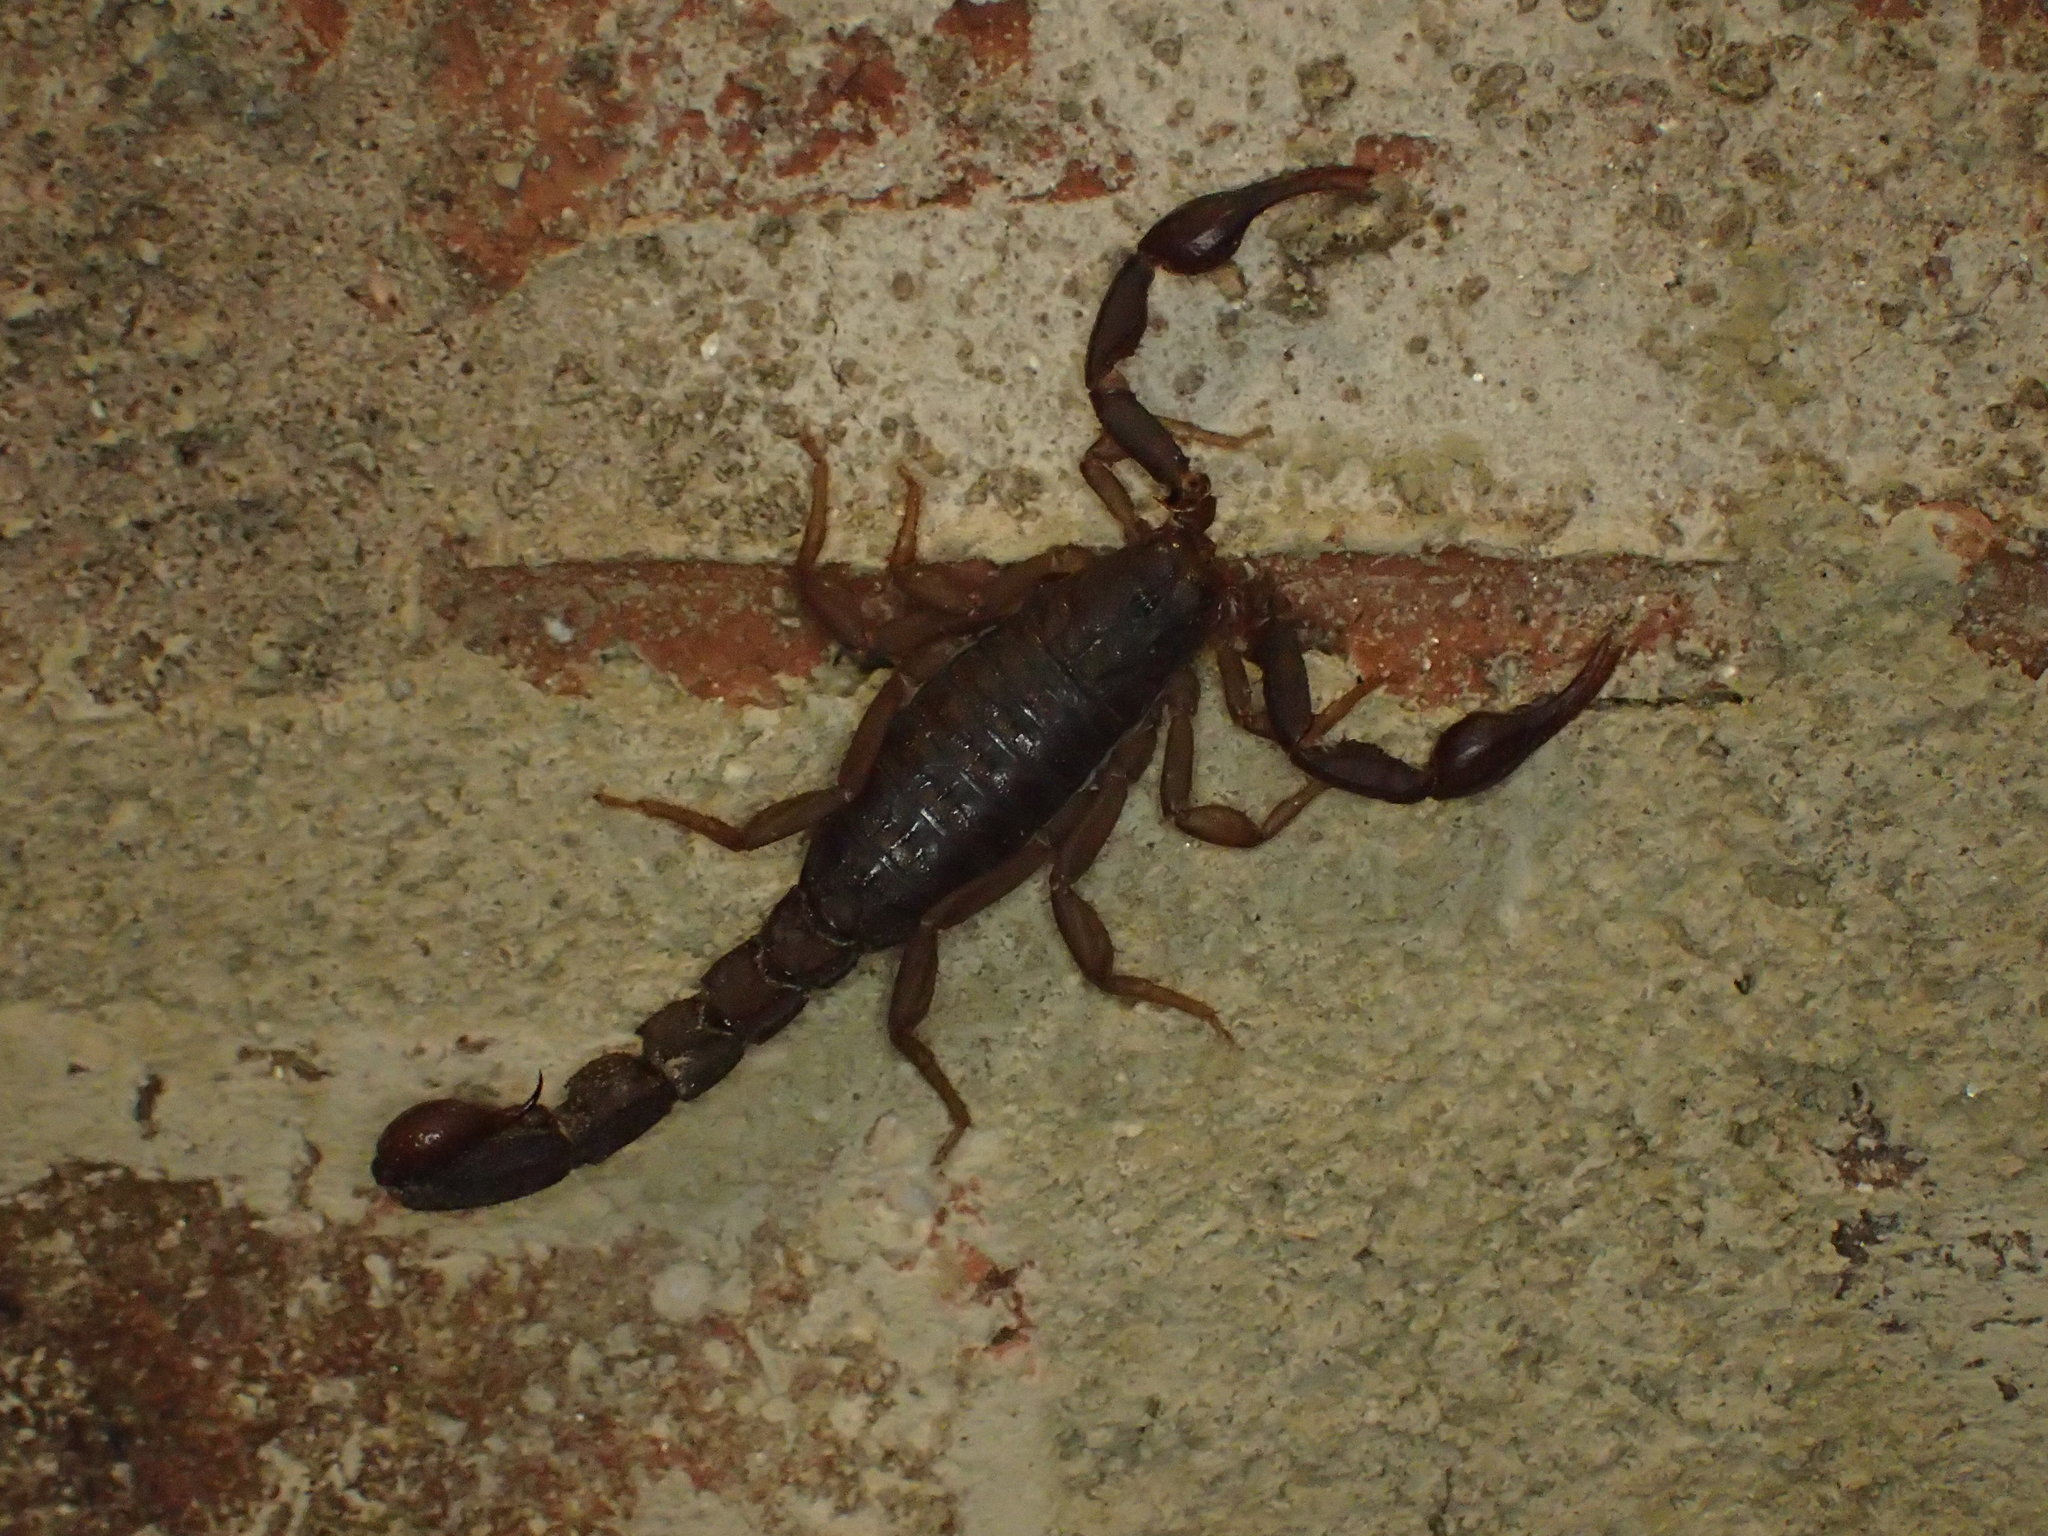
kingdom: Animalia
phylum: Arthropoda
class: Arachnida
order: Scorpiones
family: Vaejovidae
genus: Vaejovis
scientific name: Vaejovis carolinianus
